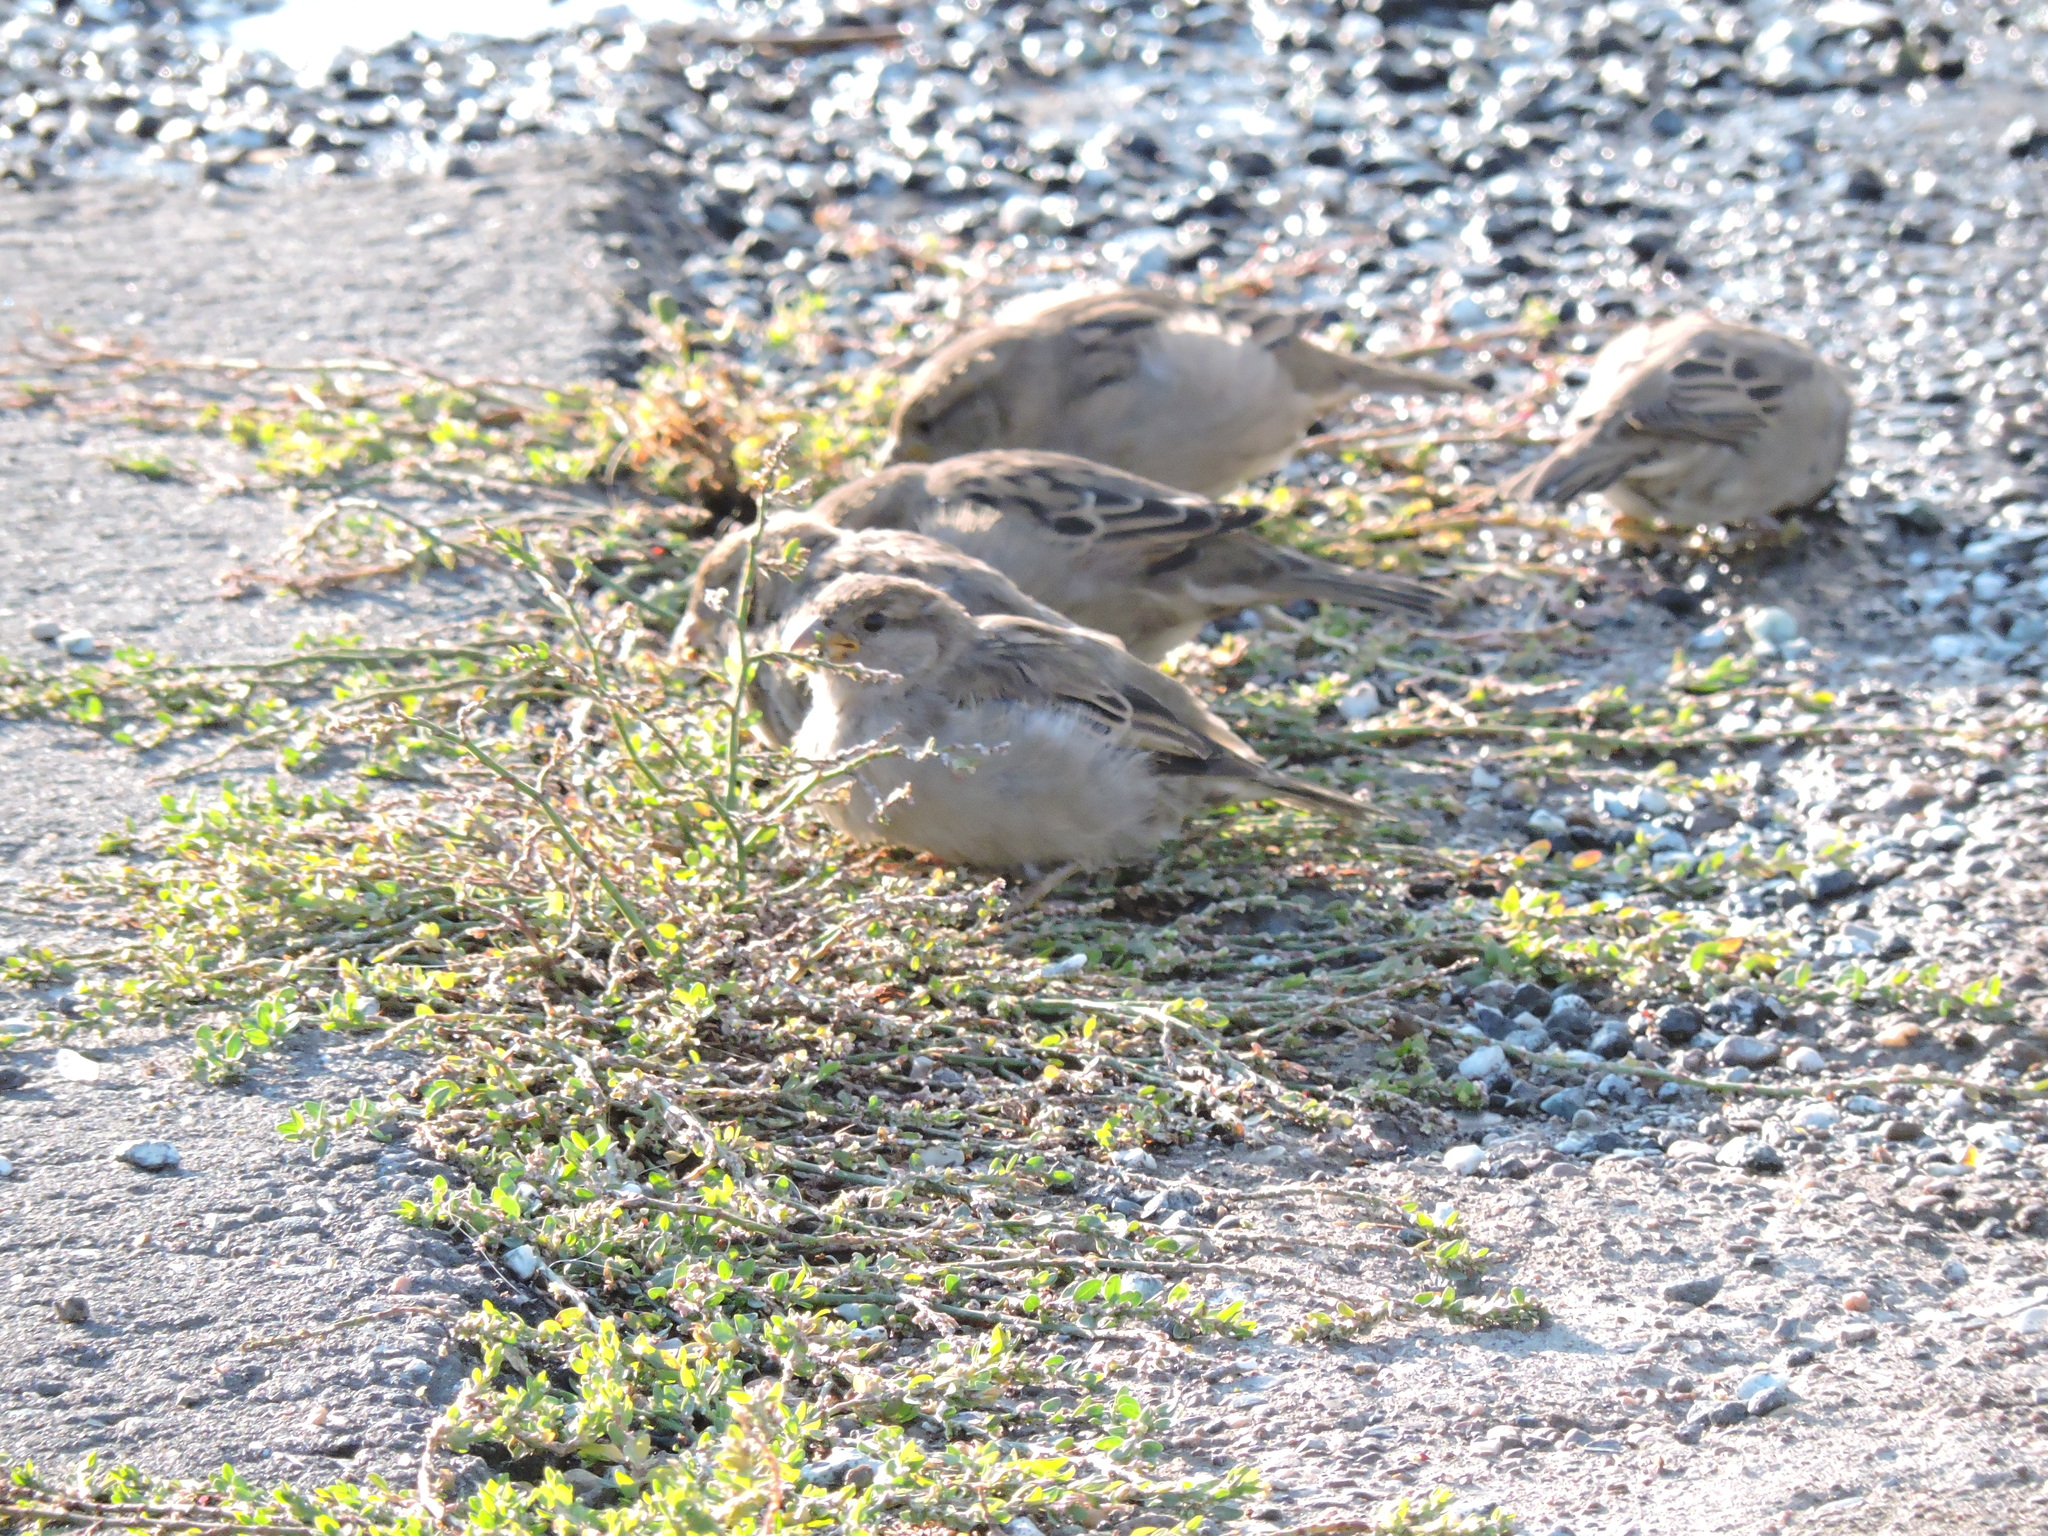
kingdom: Animalia
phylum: Chordata
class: Aves
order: Passeriformes
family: Passeridae
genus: Passer
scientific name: Passer domesticus
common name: House sparrow
